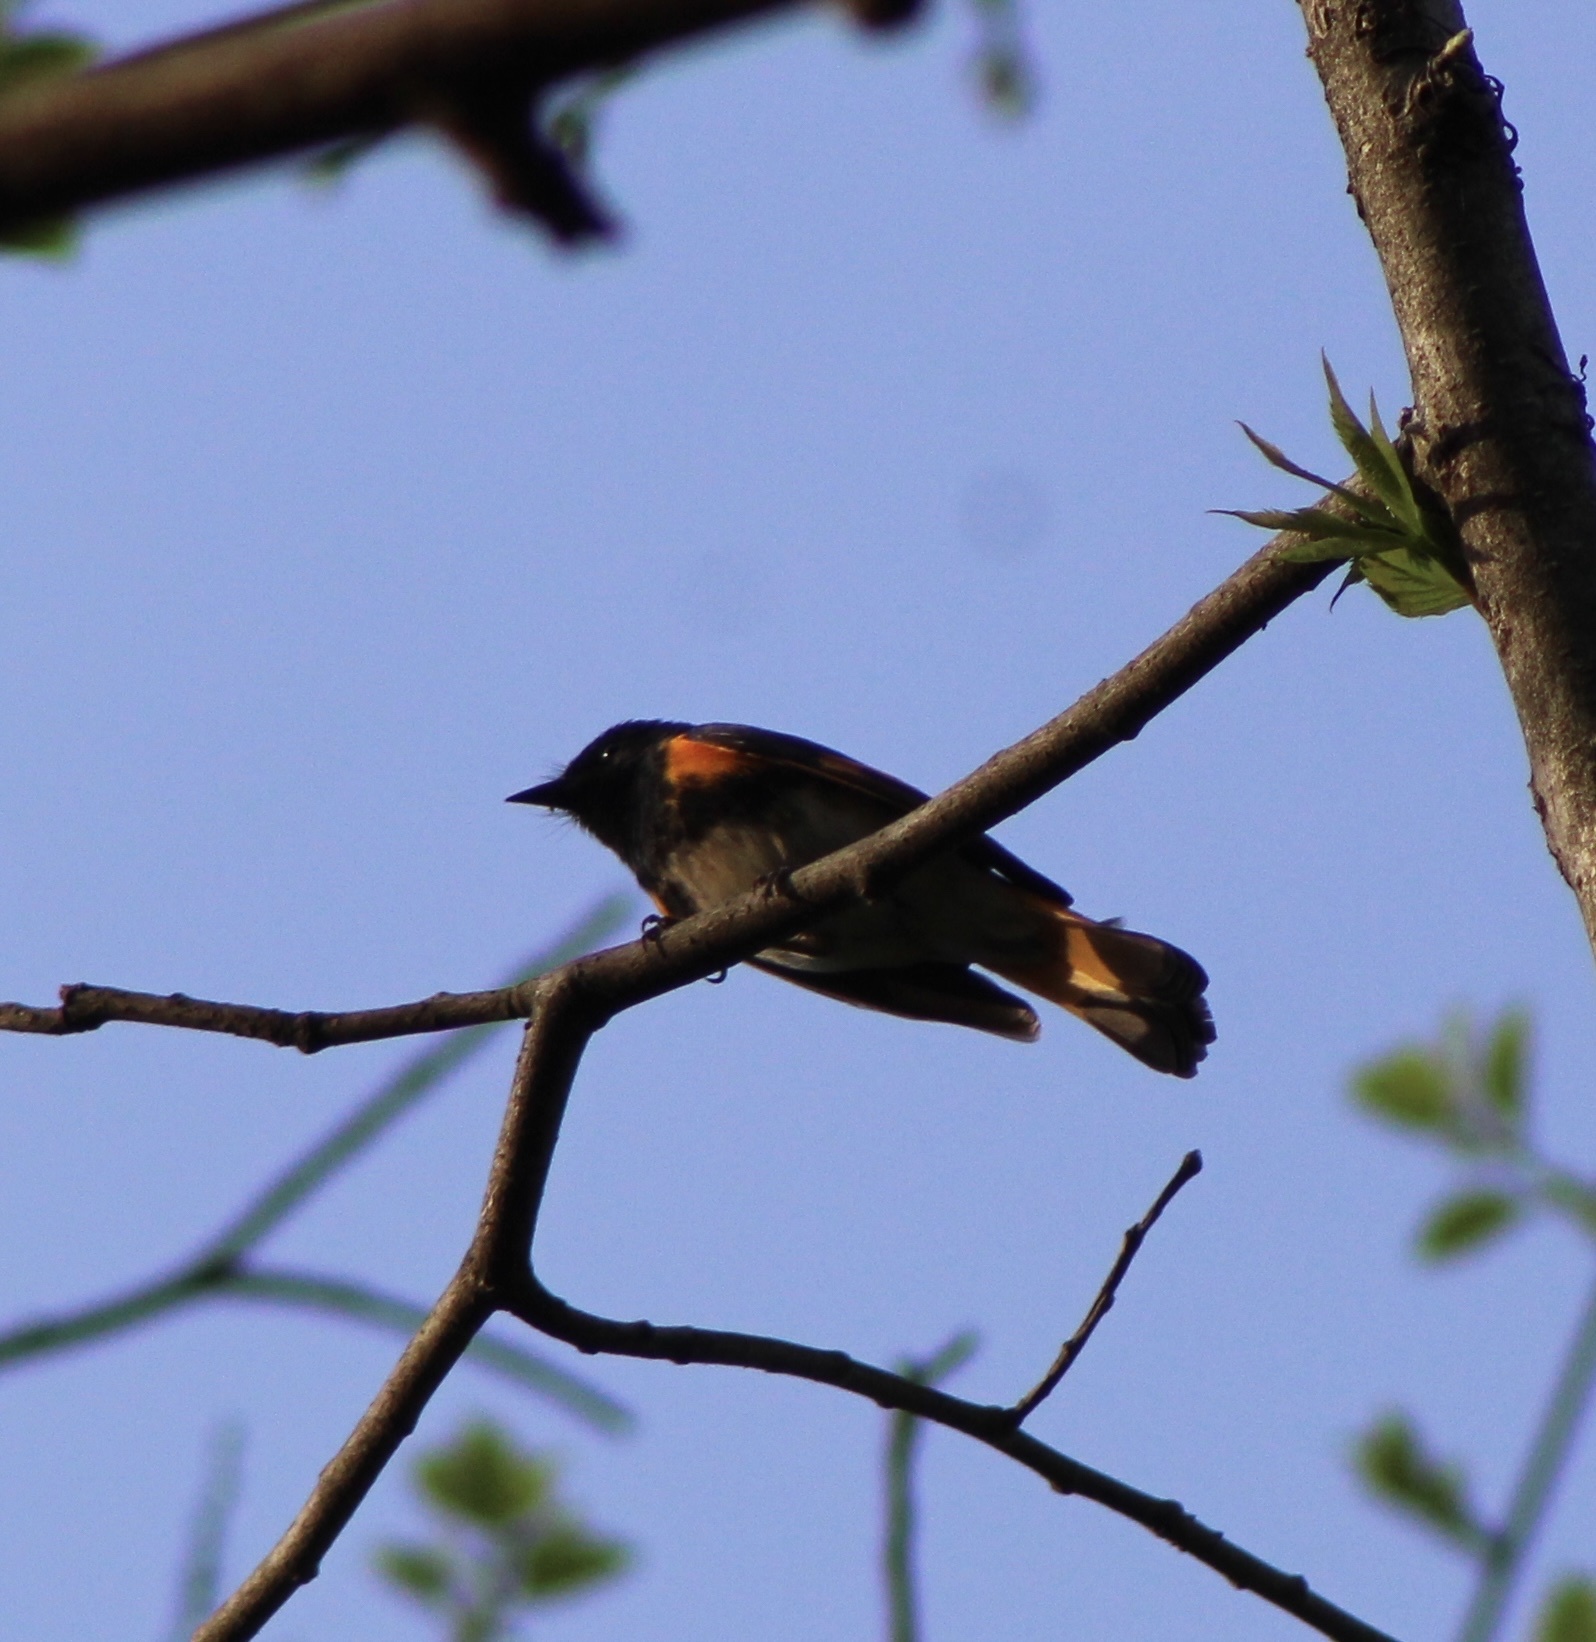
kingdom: Animalia
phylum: Chordata
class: Aves
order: Passeriformes
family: Parulidae
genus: Setophaga
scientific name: Setophaga ruticilla
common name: American redstart
